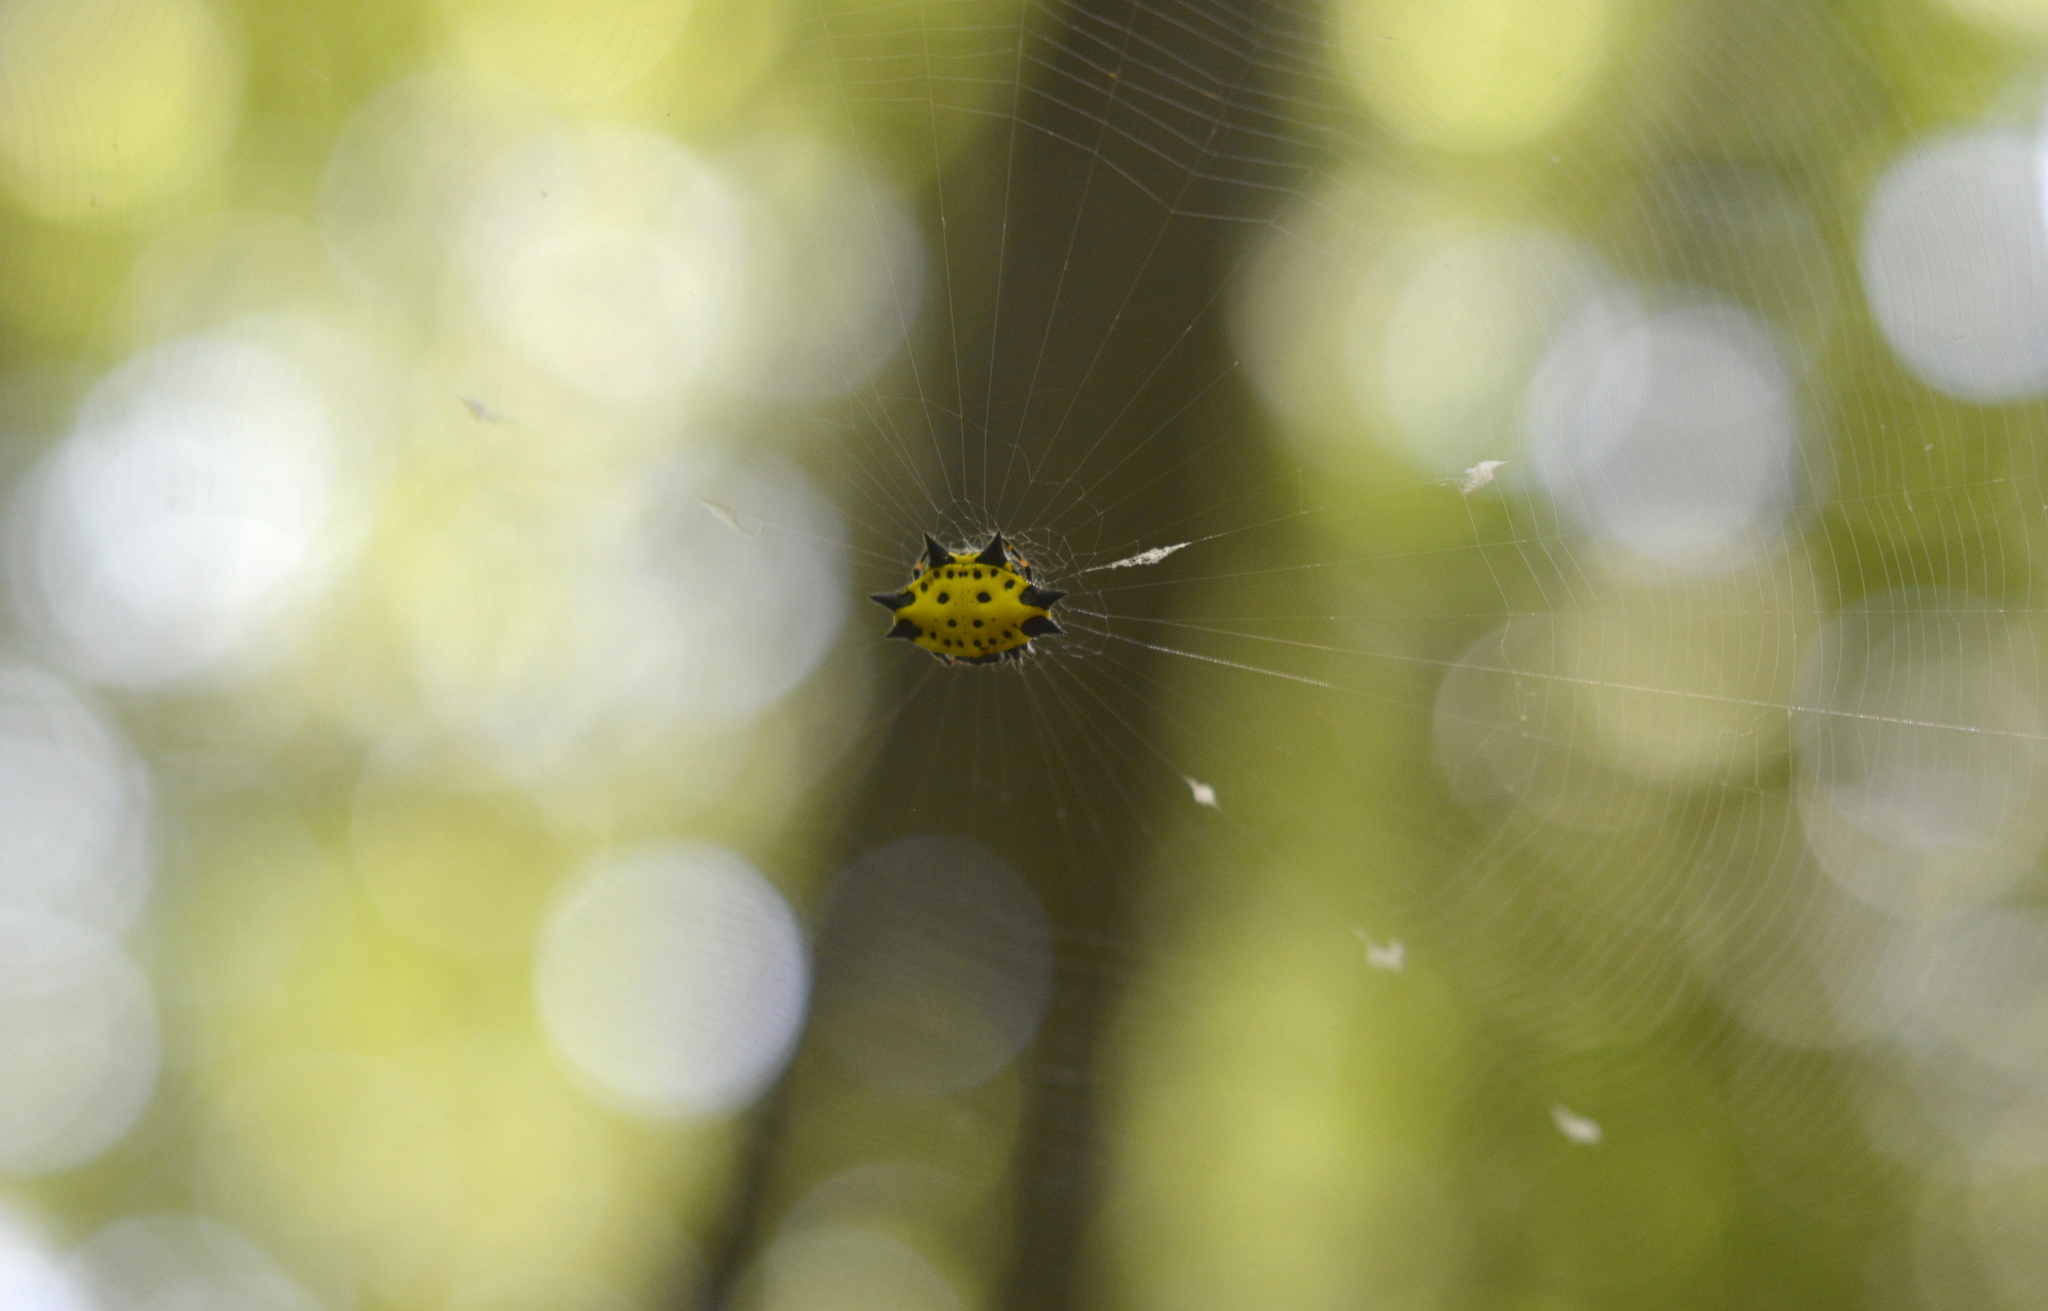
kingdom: Animalia
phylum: Arthropoda
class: Arachnida
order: Araneae
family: Araneidae
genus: Gasteracantha
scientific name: Gasteracantha cancriformis
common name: Orb weavers
